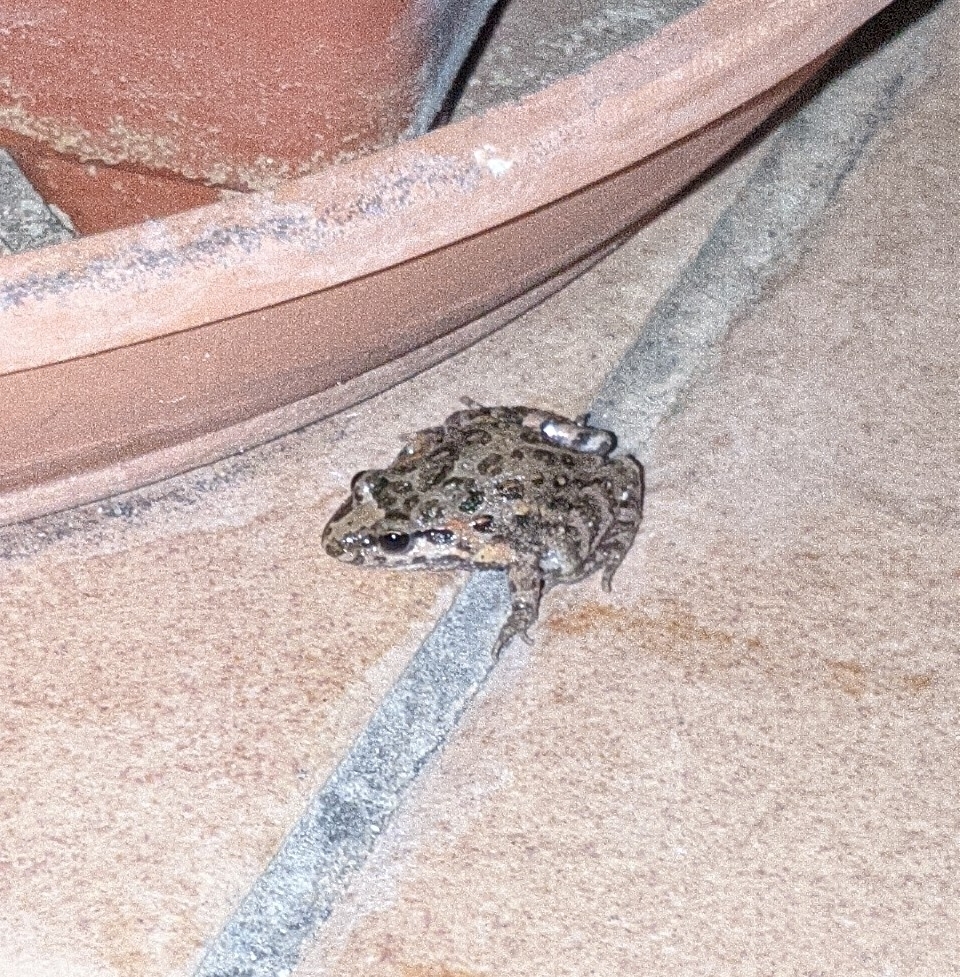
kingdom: Animalia
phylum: Chordata
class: Amphibia
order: Anura
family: Alytidae
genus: Discoglossus
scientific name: Discoglossus pictus
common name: Painted frog
